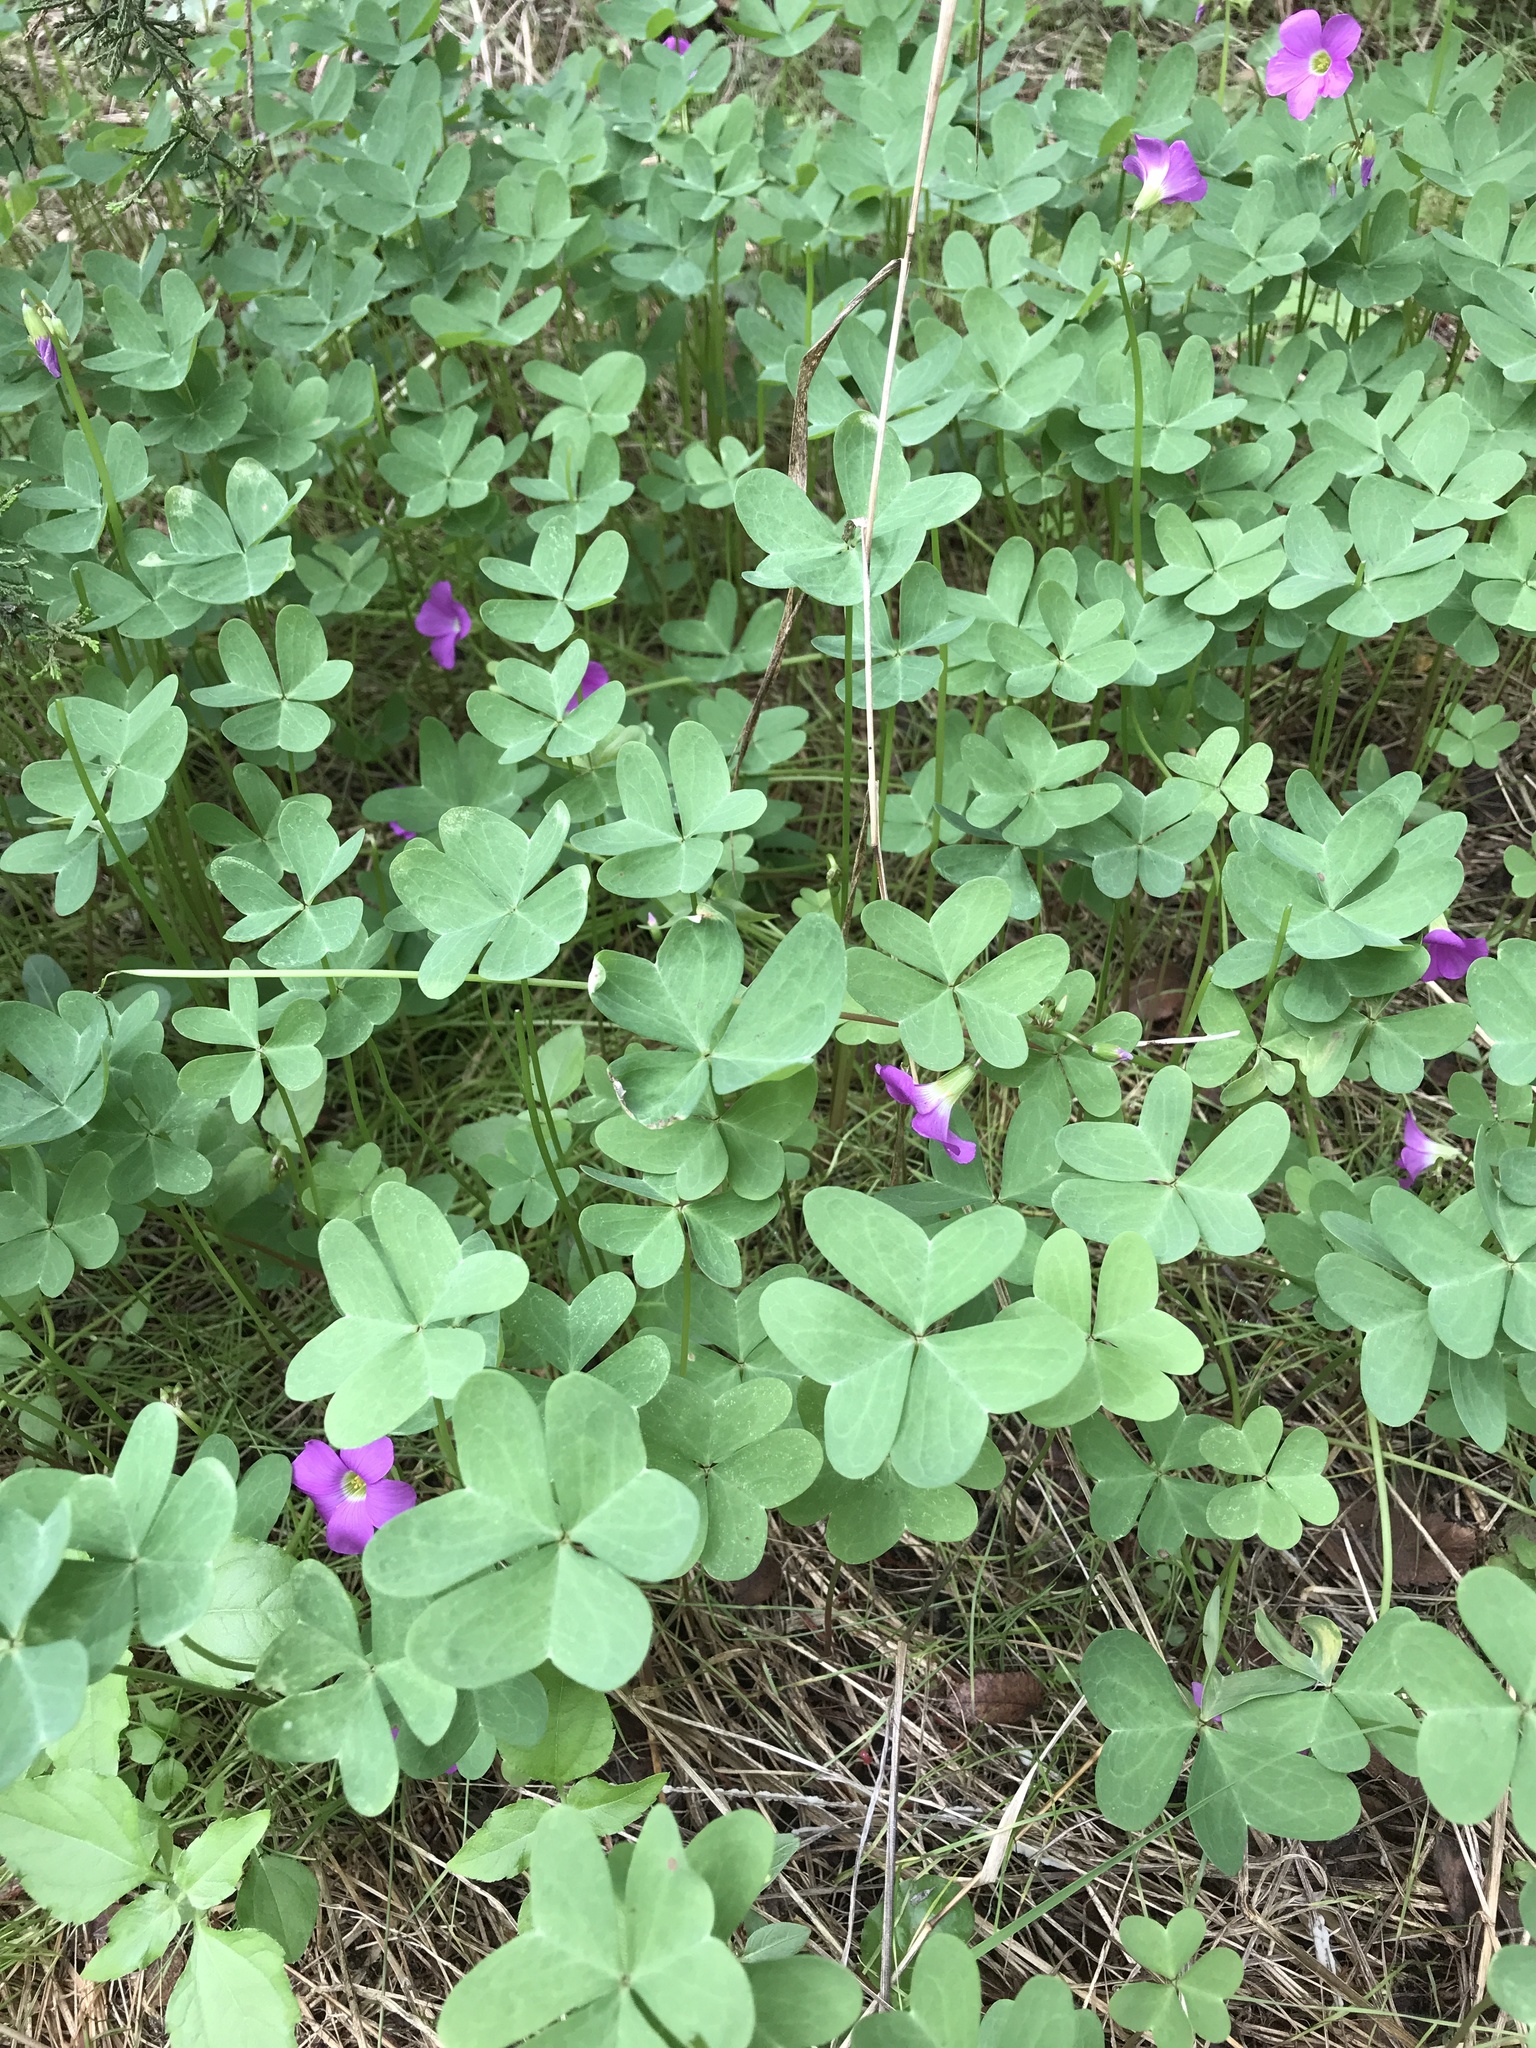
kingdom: Plantae
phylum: Tracheophyta
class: Magnoliopsida
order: Oxalidales
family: Oxalidaceae
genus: Oxalis
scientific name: Oxalis drummondii
